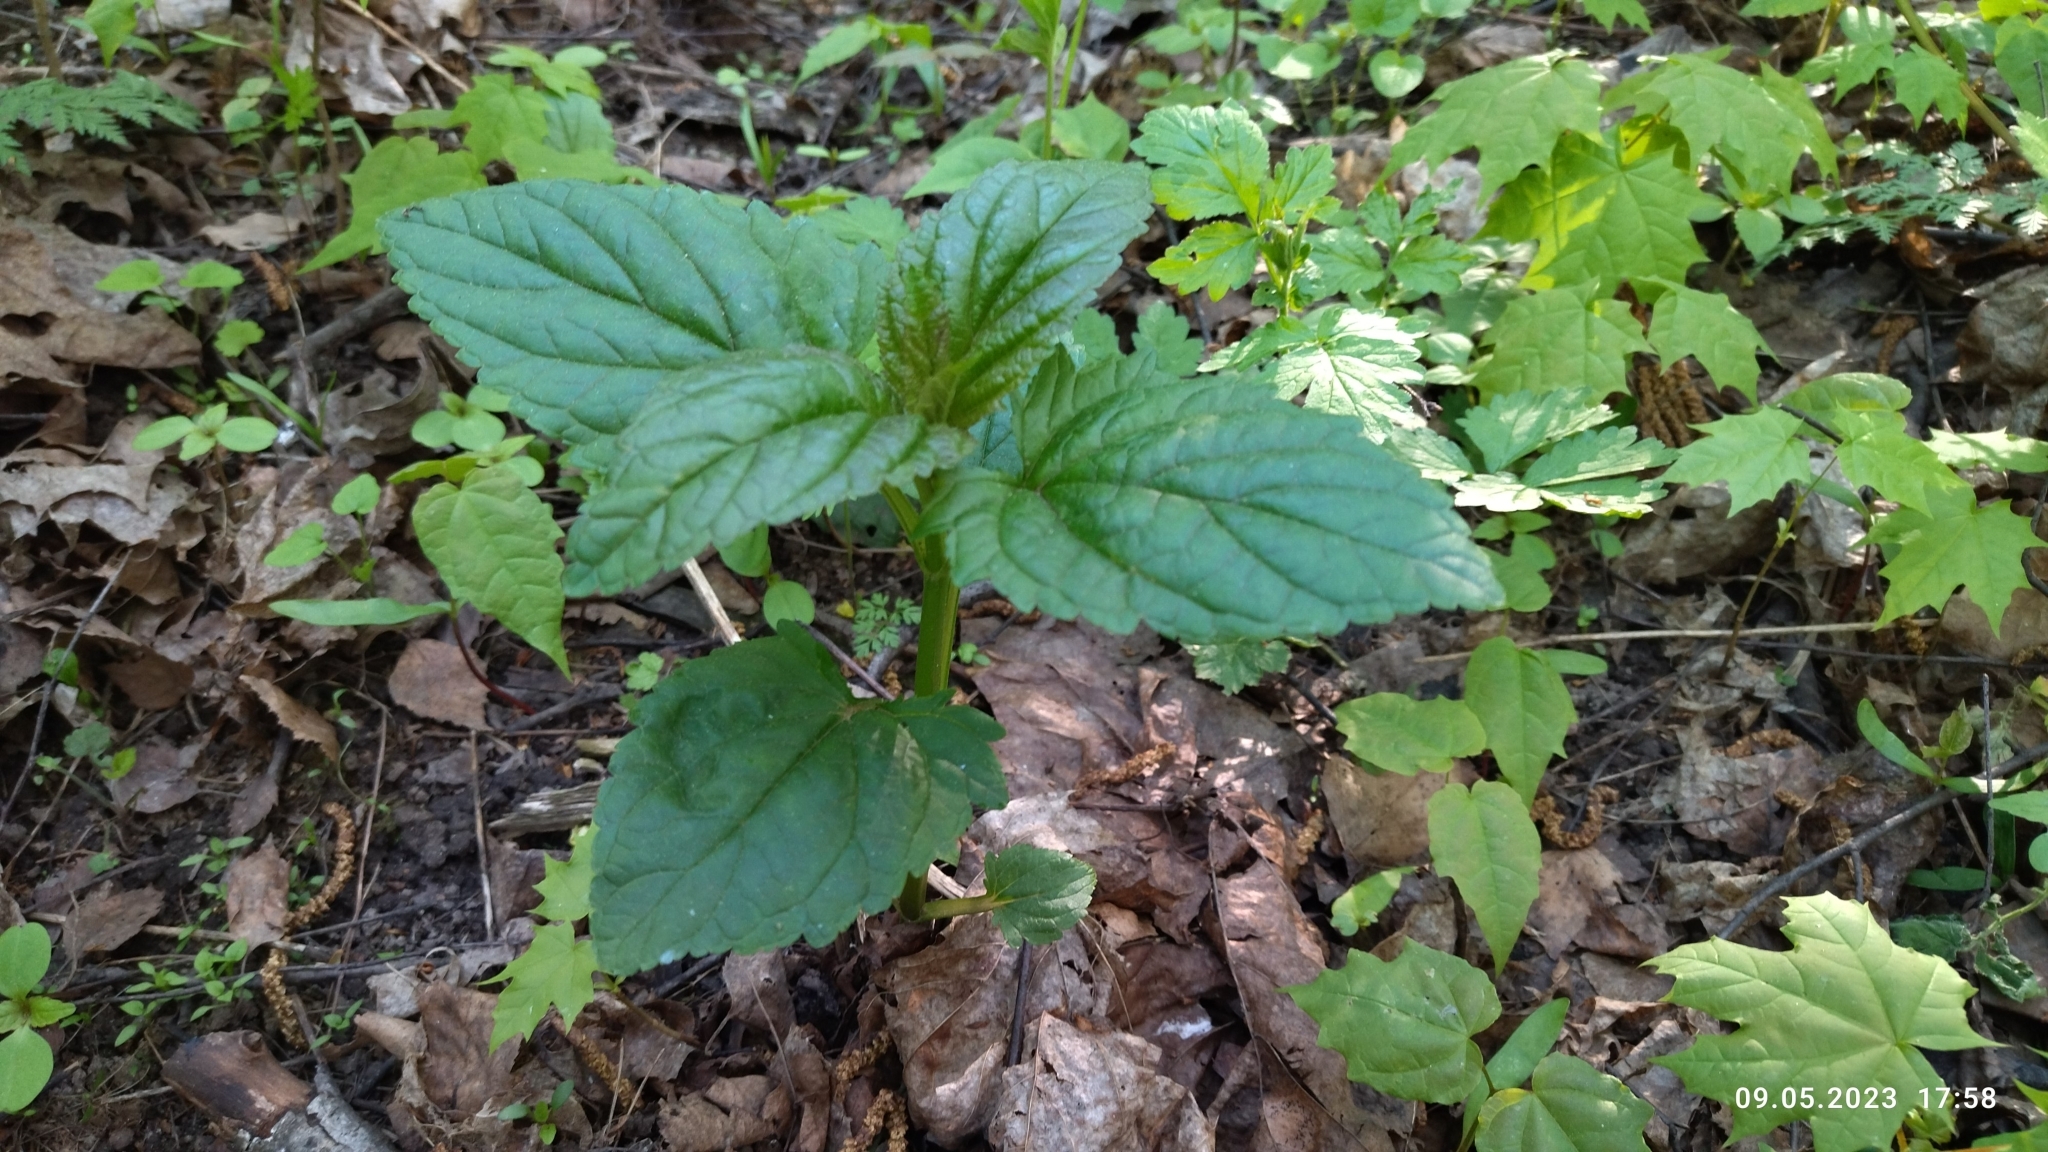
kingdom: Plantae
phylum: Tracheophyta
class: Magnoliopsida
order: Lamiales
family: Scrophulariaceae
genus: Scrophularia
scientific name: Scrophularia nodosa
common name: Common figwort
